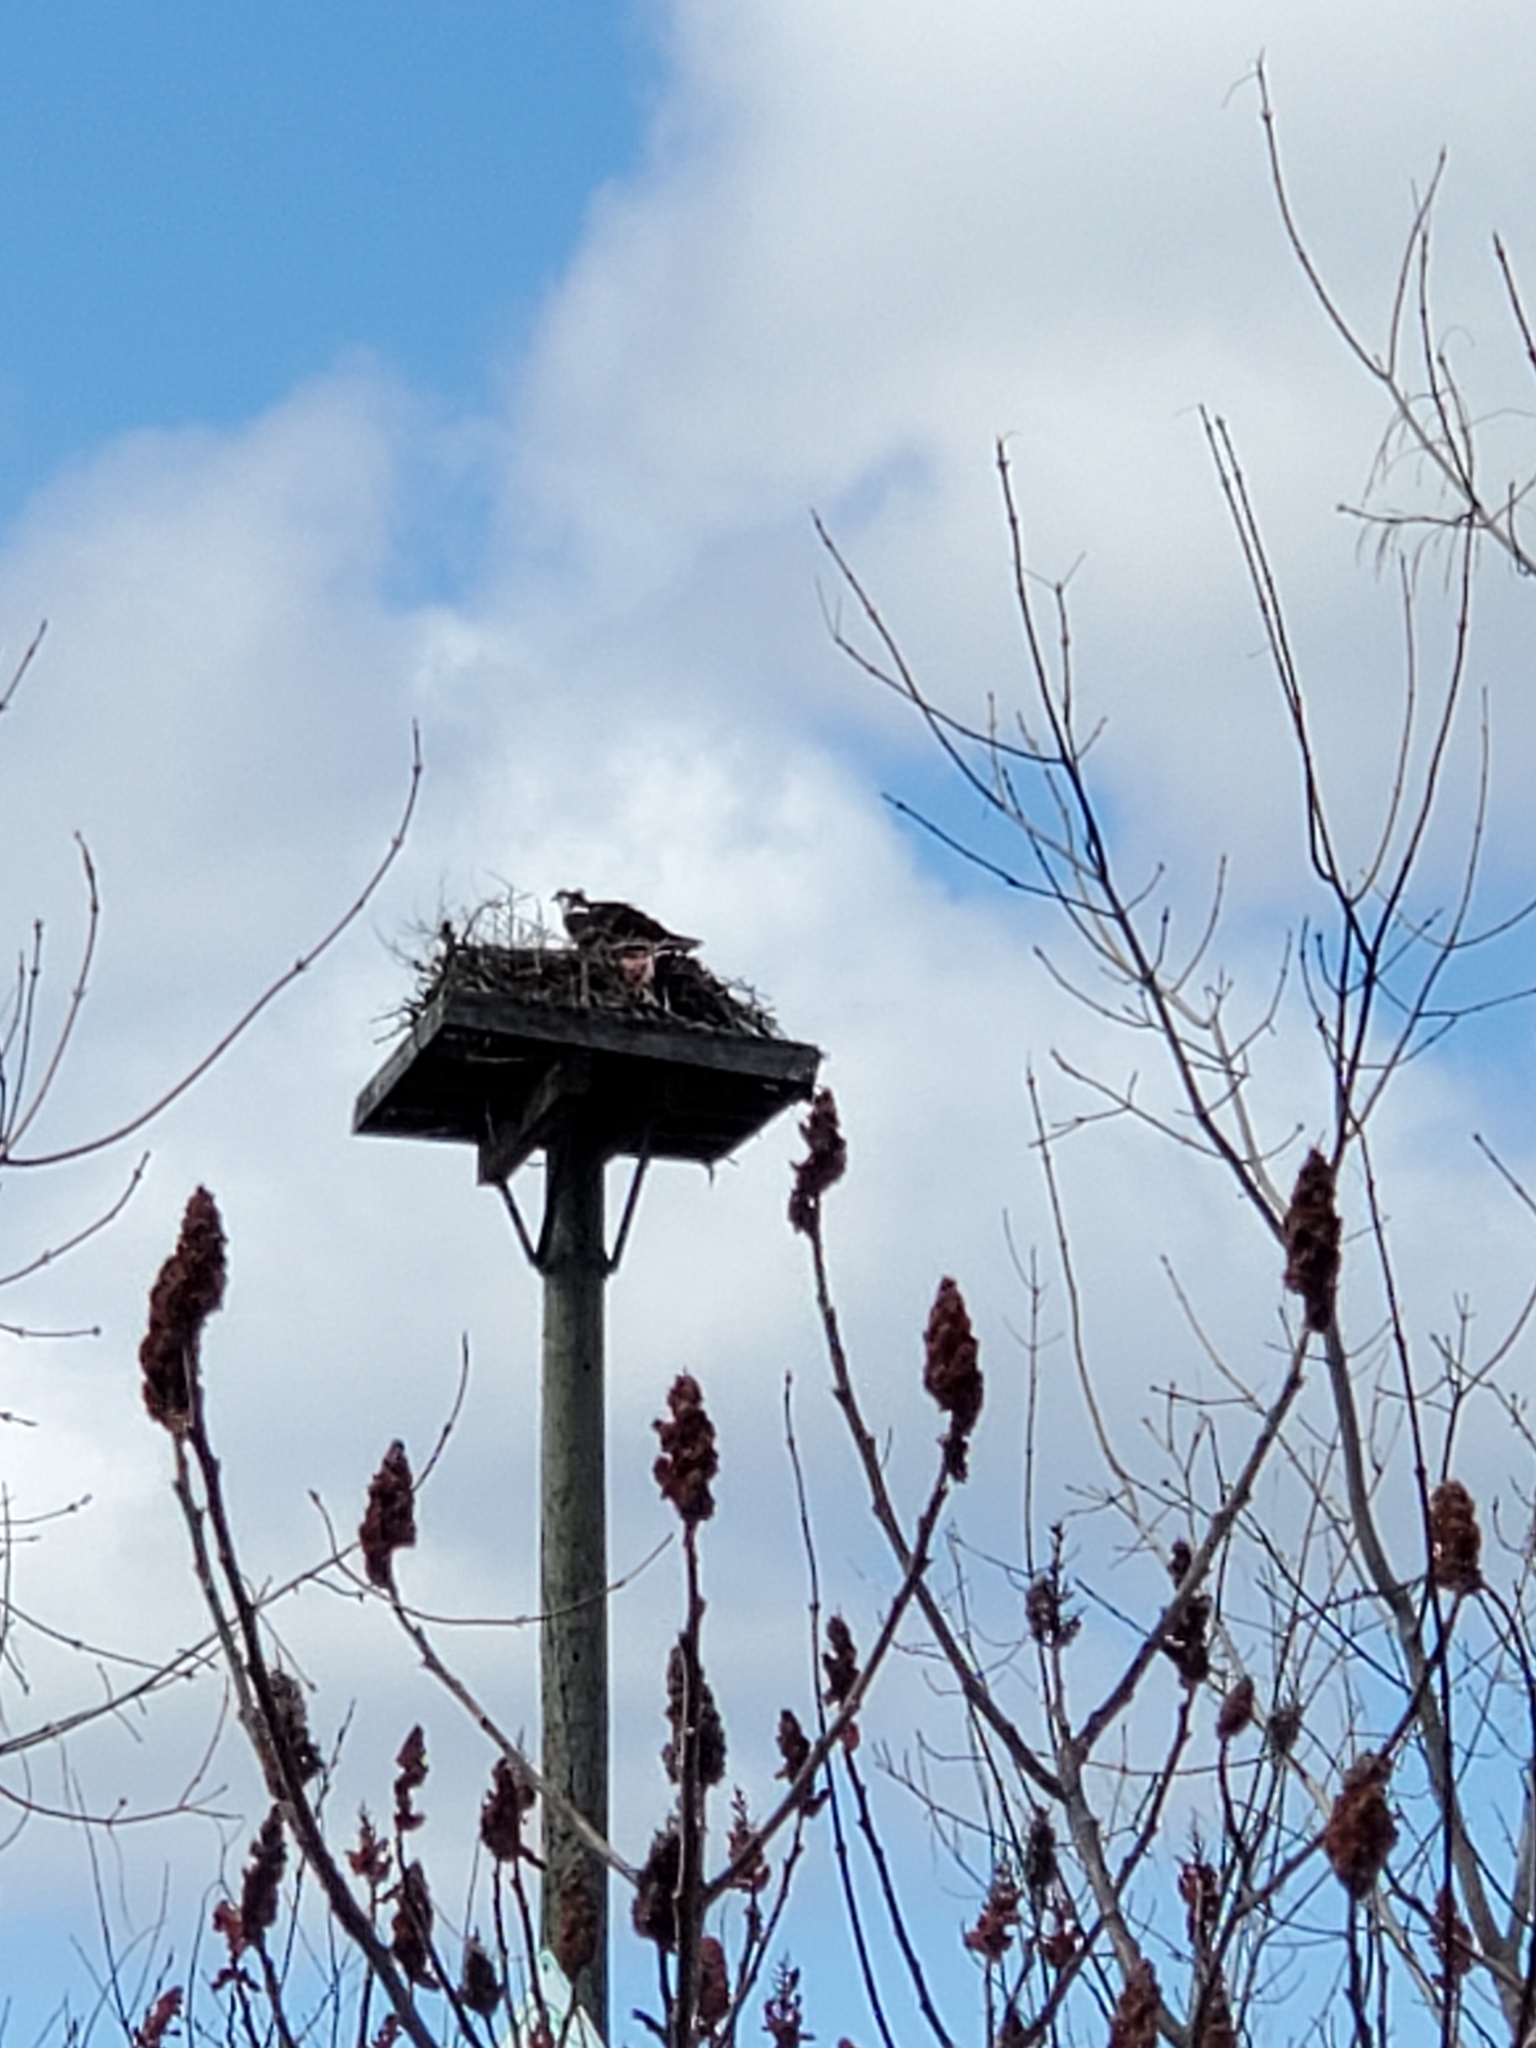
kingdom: Animalia
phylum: Chordata
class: Aves
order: Accipitriformes
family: Pandionidae
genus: Pandion
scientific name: Pandion haliaetus
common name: Osprey
